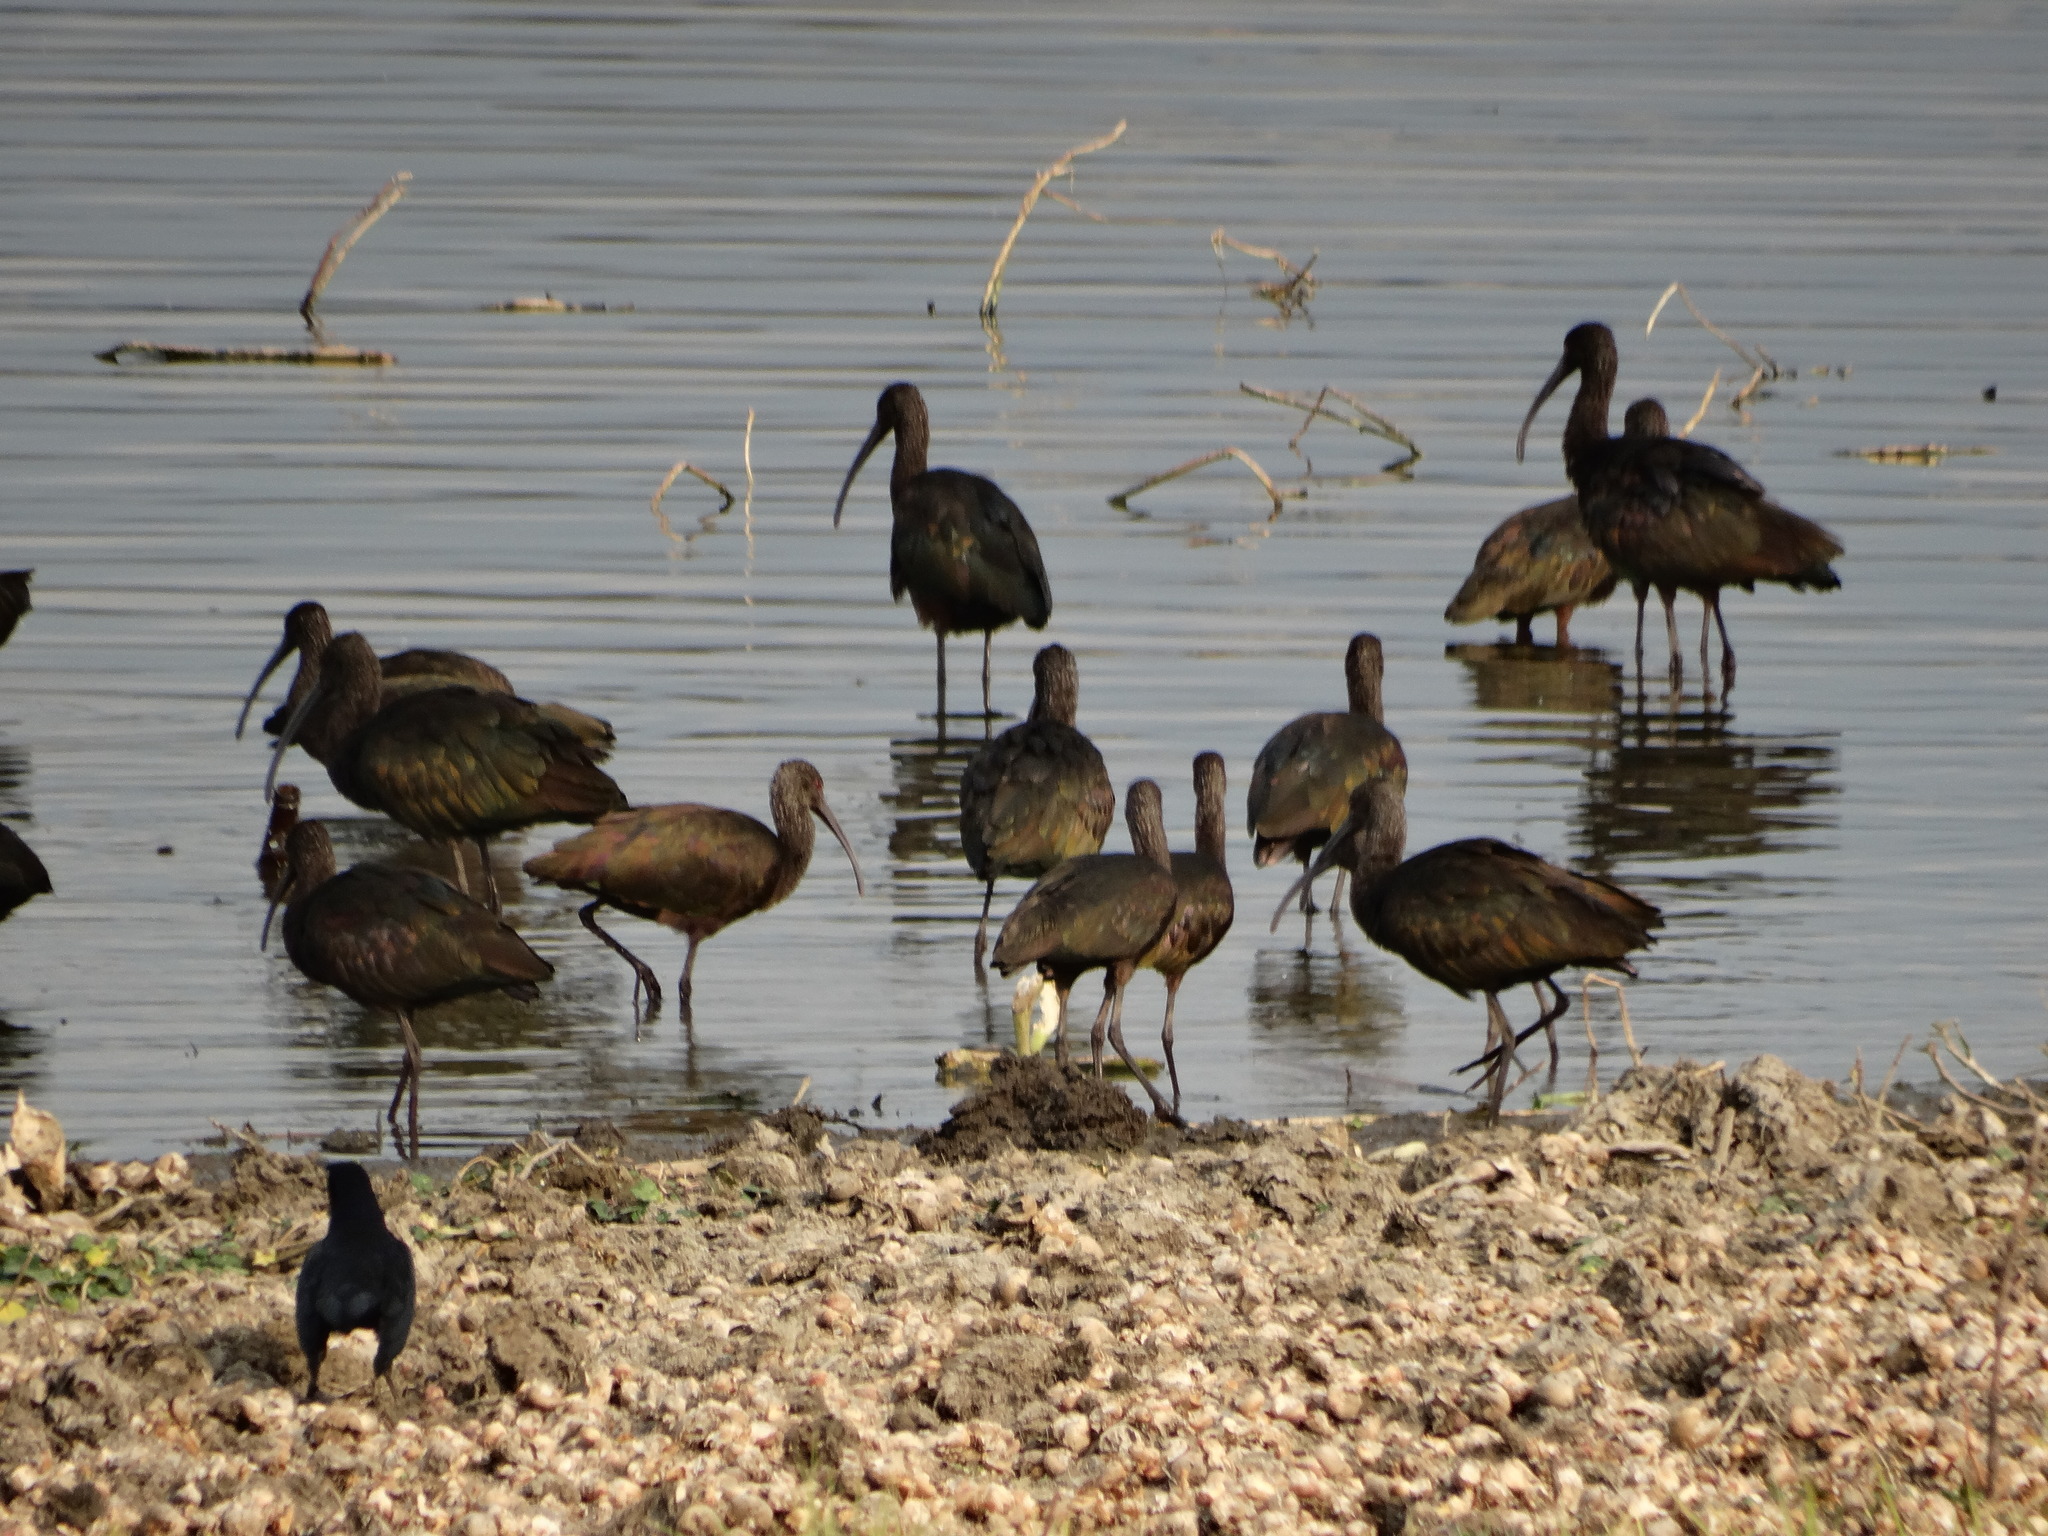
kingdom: Animalia
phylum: Chordata
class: Aves
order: Pelecaniformes
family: Threskiornithidae
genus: Plegadis
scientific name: Plegadis chihi
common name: White-faced ibis
